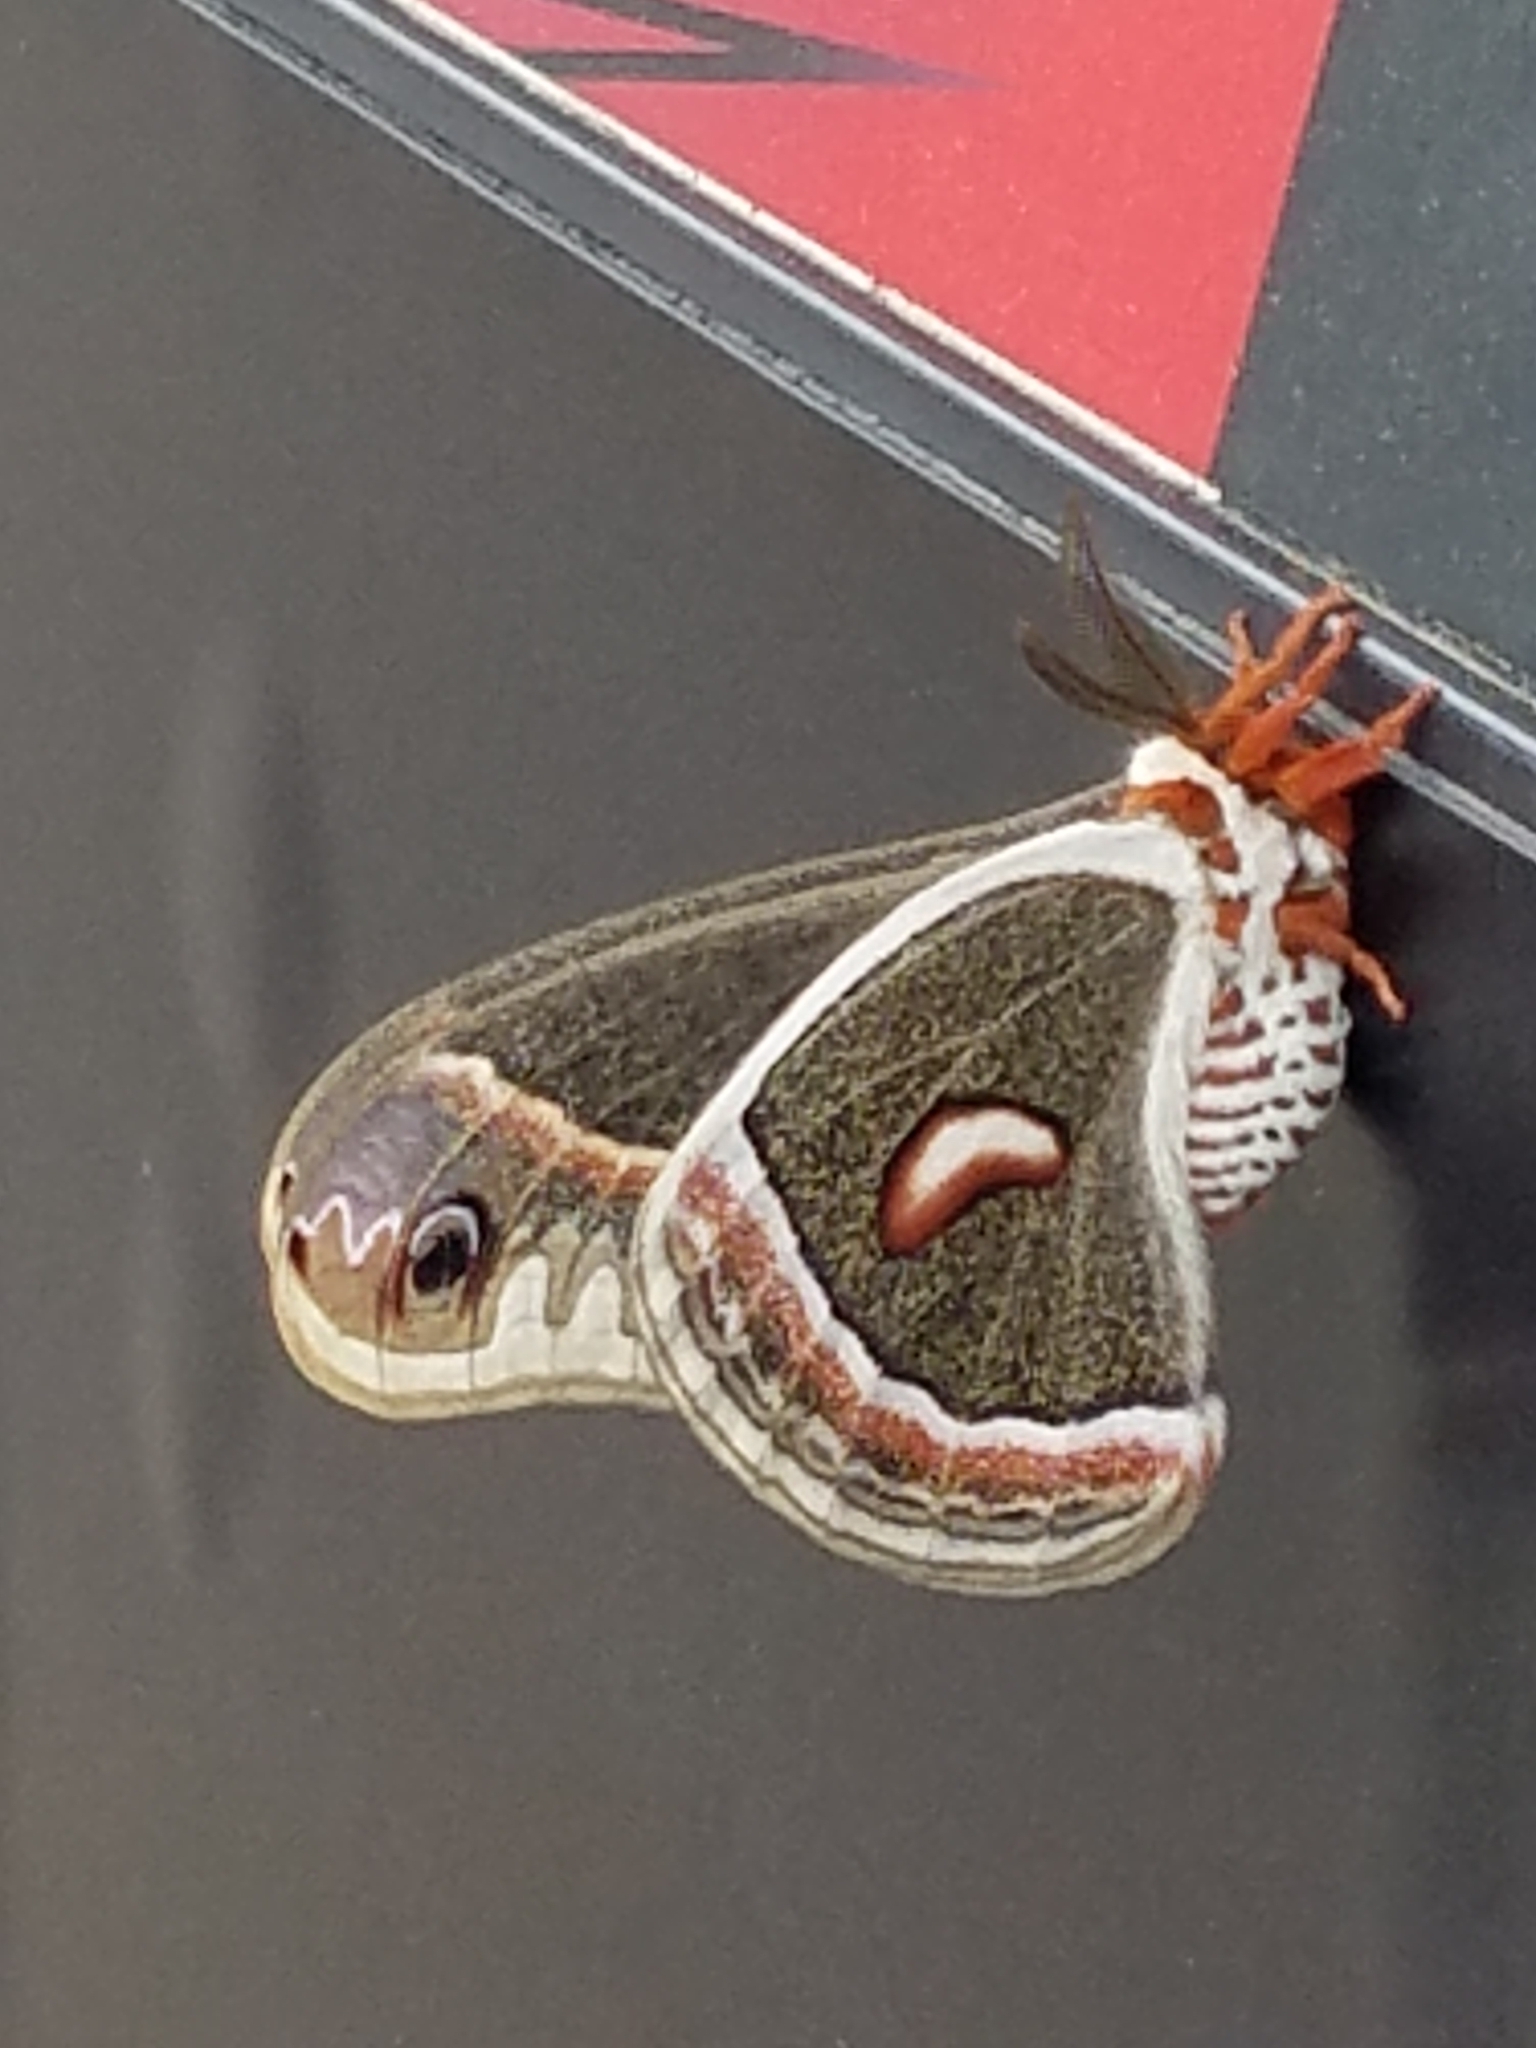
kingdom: Animalia
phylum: Arthropoda
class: Insecta
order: Lepidoptera
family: Saturniidae
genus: Hyalophora
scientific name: Hyalophora cecropia
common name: Cecropia silkmoth
